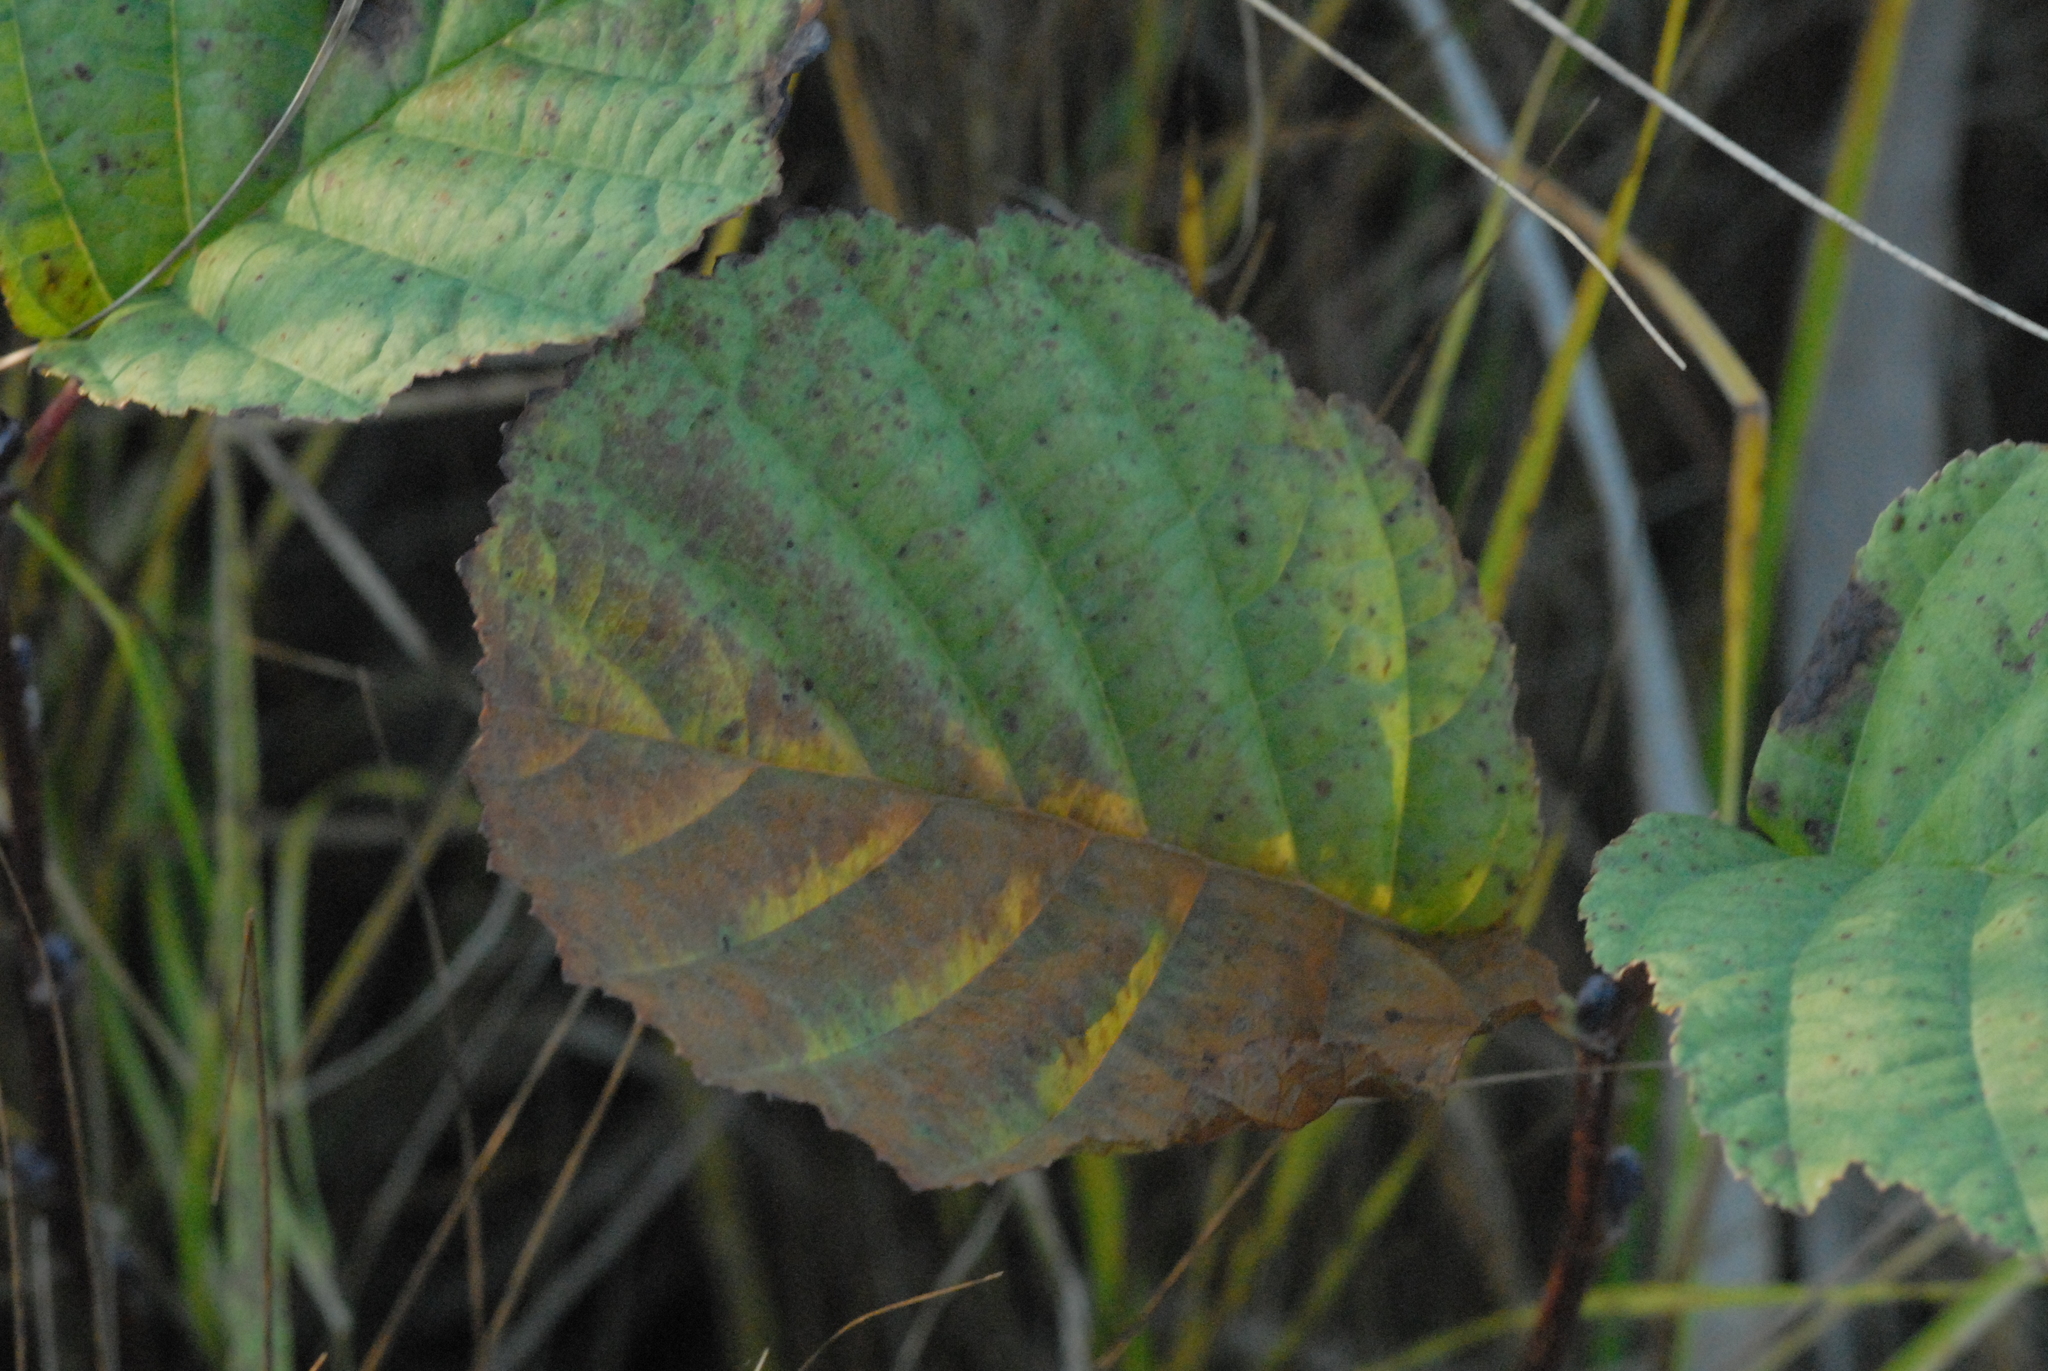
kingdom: Plantae
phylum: Tracheophyta
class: Magnoliopsida
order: Fagales
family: Betulaceae
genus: Alnus
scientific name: Alnus glutinosa
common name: Black alder
